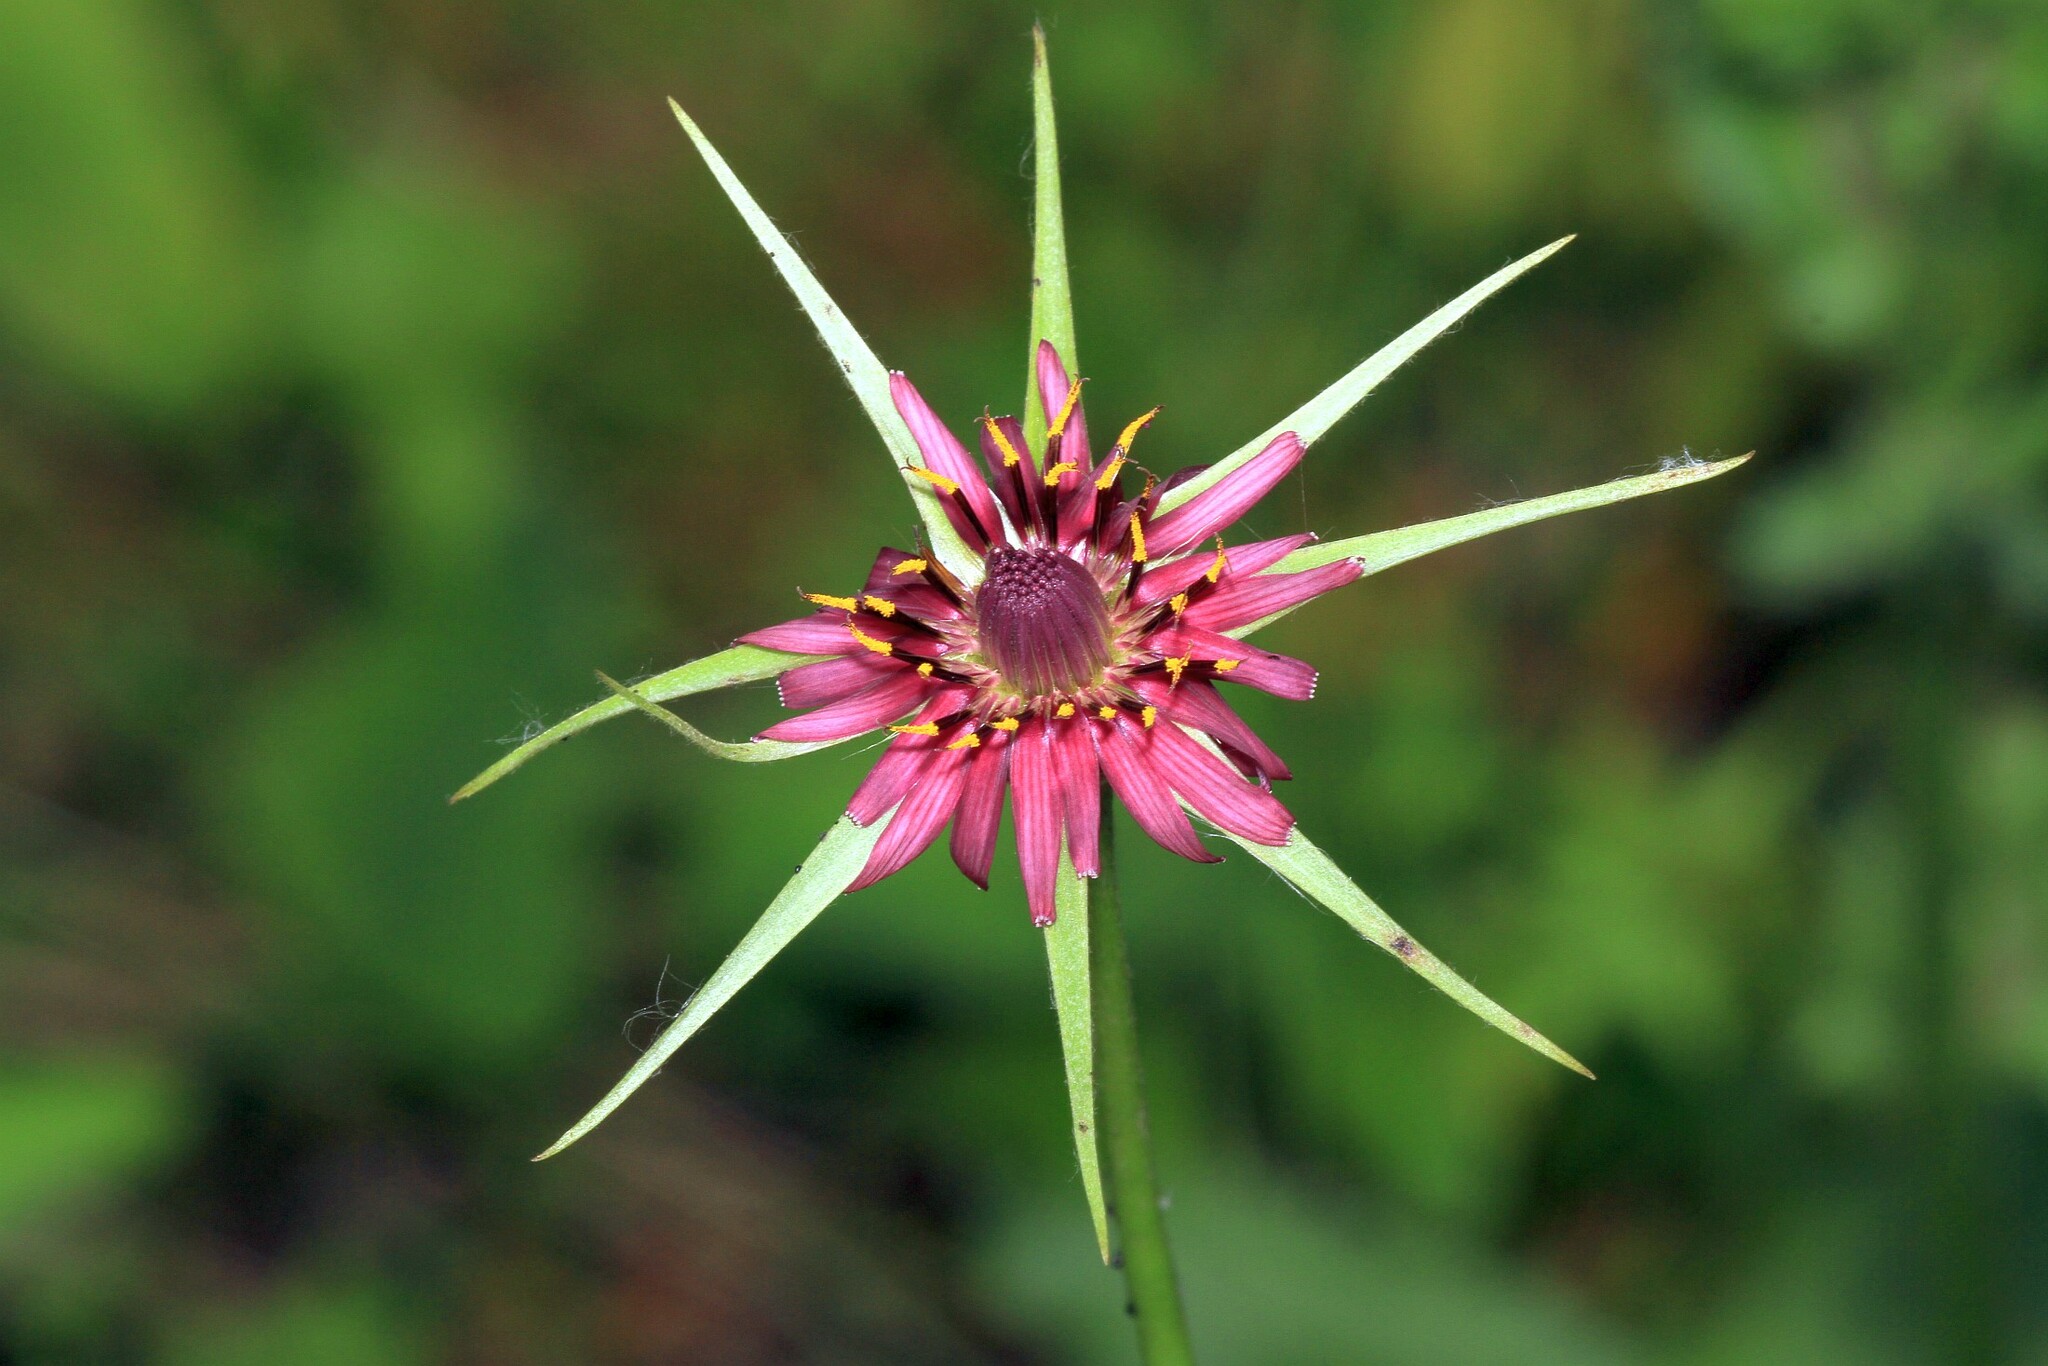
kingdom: Plantae
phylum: Tracheophyta
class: Magnoliopsida
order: Asterales
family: Asteraceae
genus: Tragopogon
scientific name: Tragopogon porrifolius
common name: Salsify
